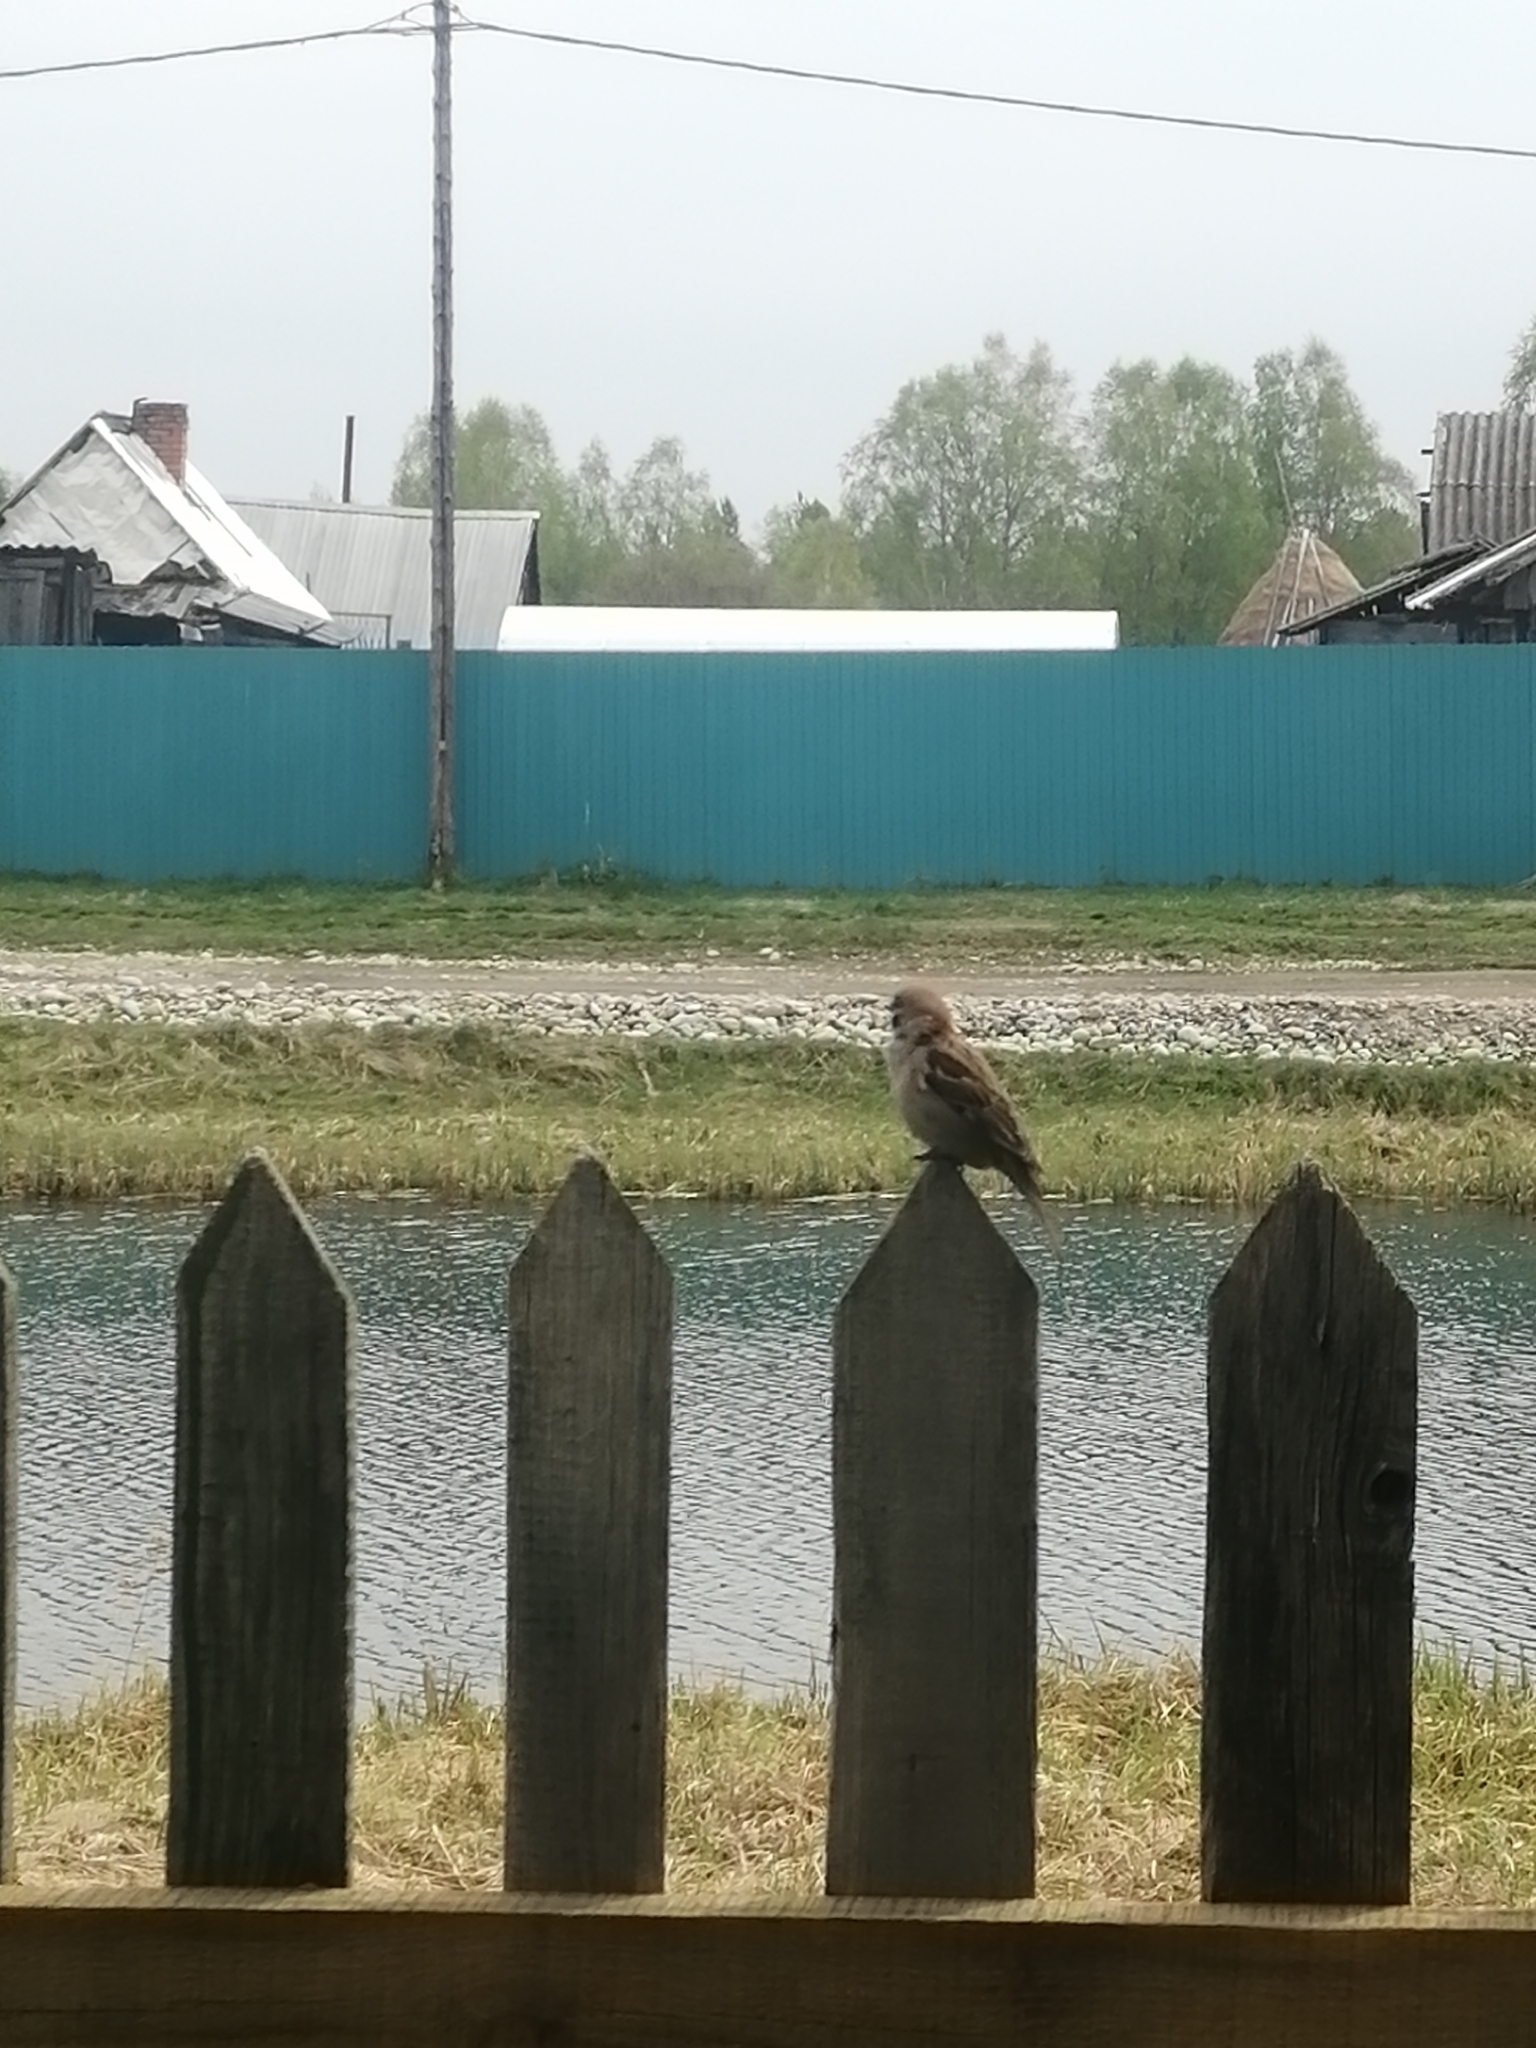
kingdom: Animalia
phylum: Chordata
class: Aves
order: Passeriformes
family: Passeridae
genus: Passer
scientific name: Passer montanus
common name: Eurasian tree sparrow
